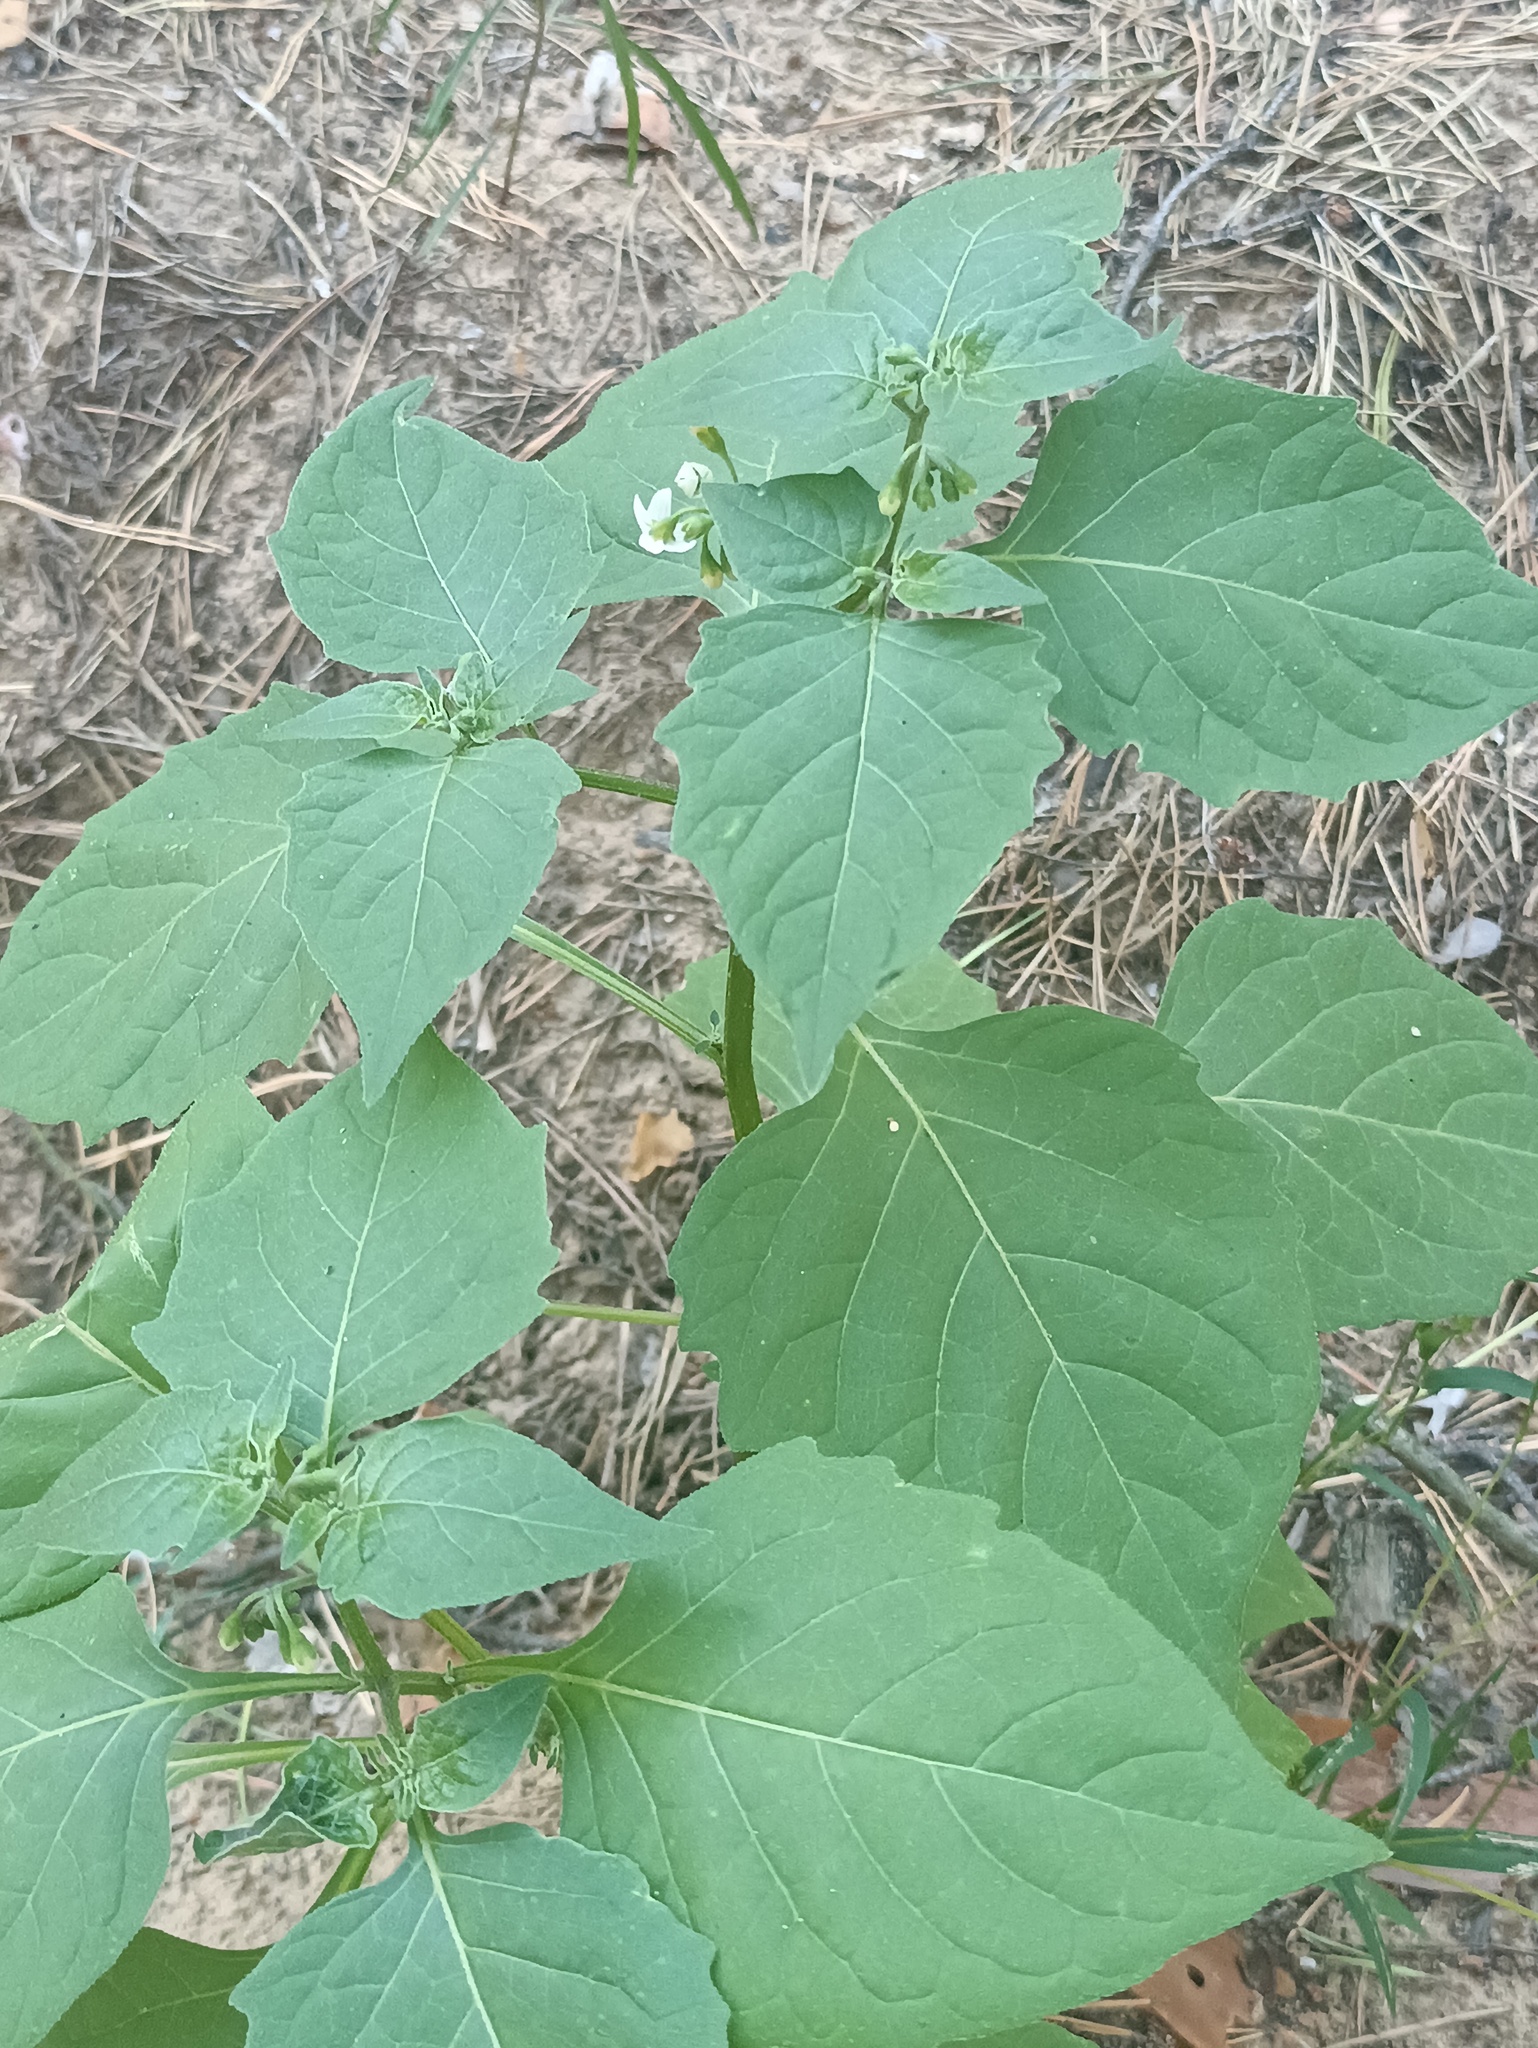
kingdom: Plantae
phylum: Tracheophyta
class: Magnoliopsida
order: Solanales
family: Solanaceae
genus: Solanum
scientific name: Solanum nigrum
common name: Black nightshade
